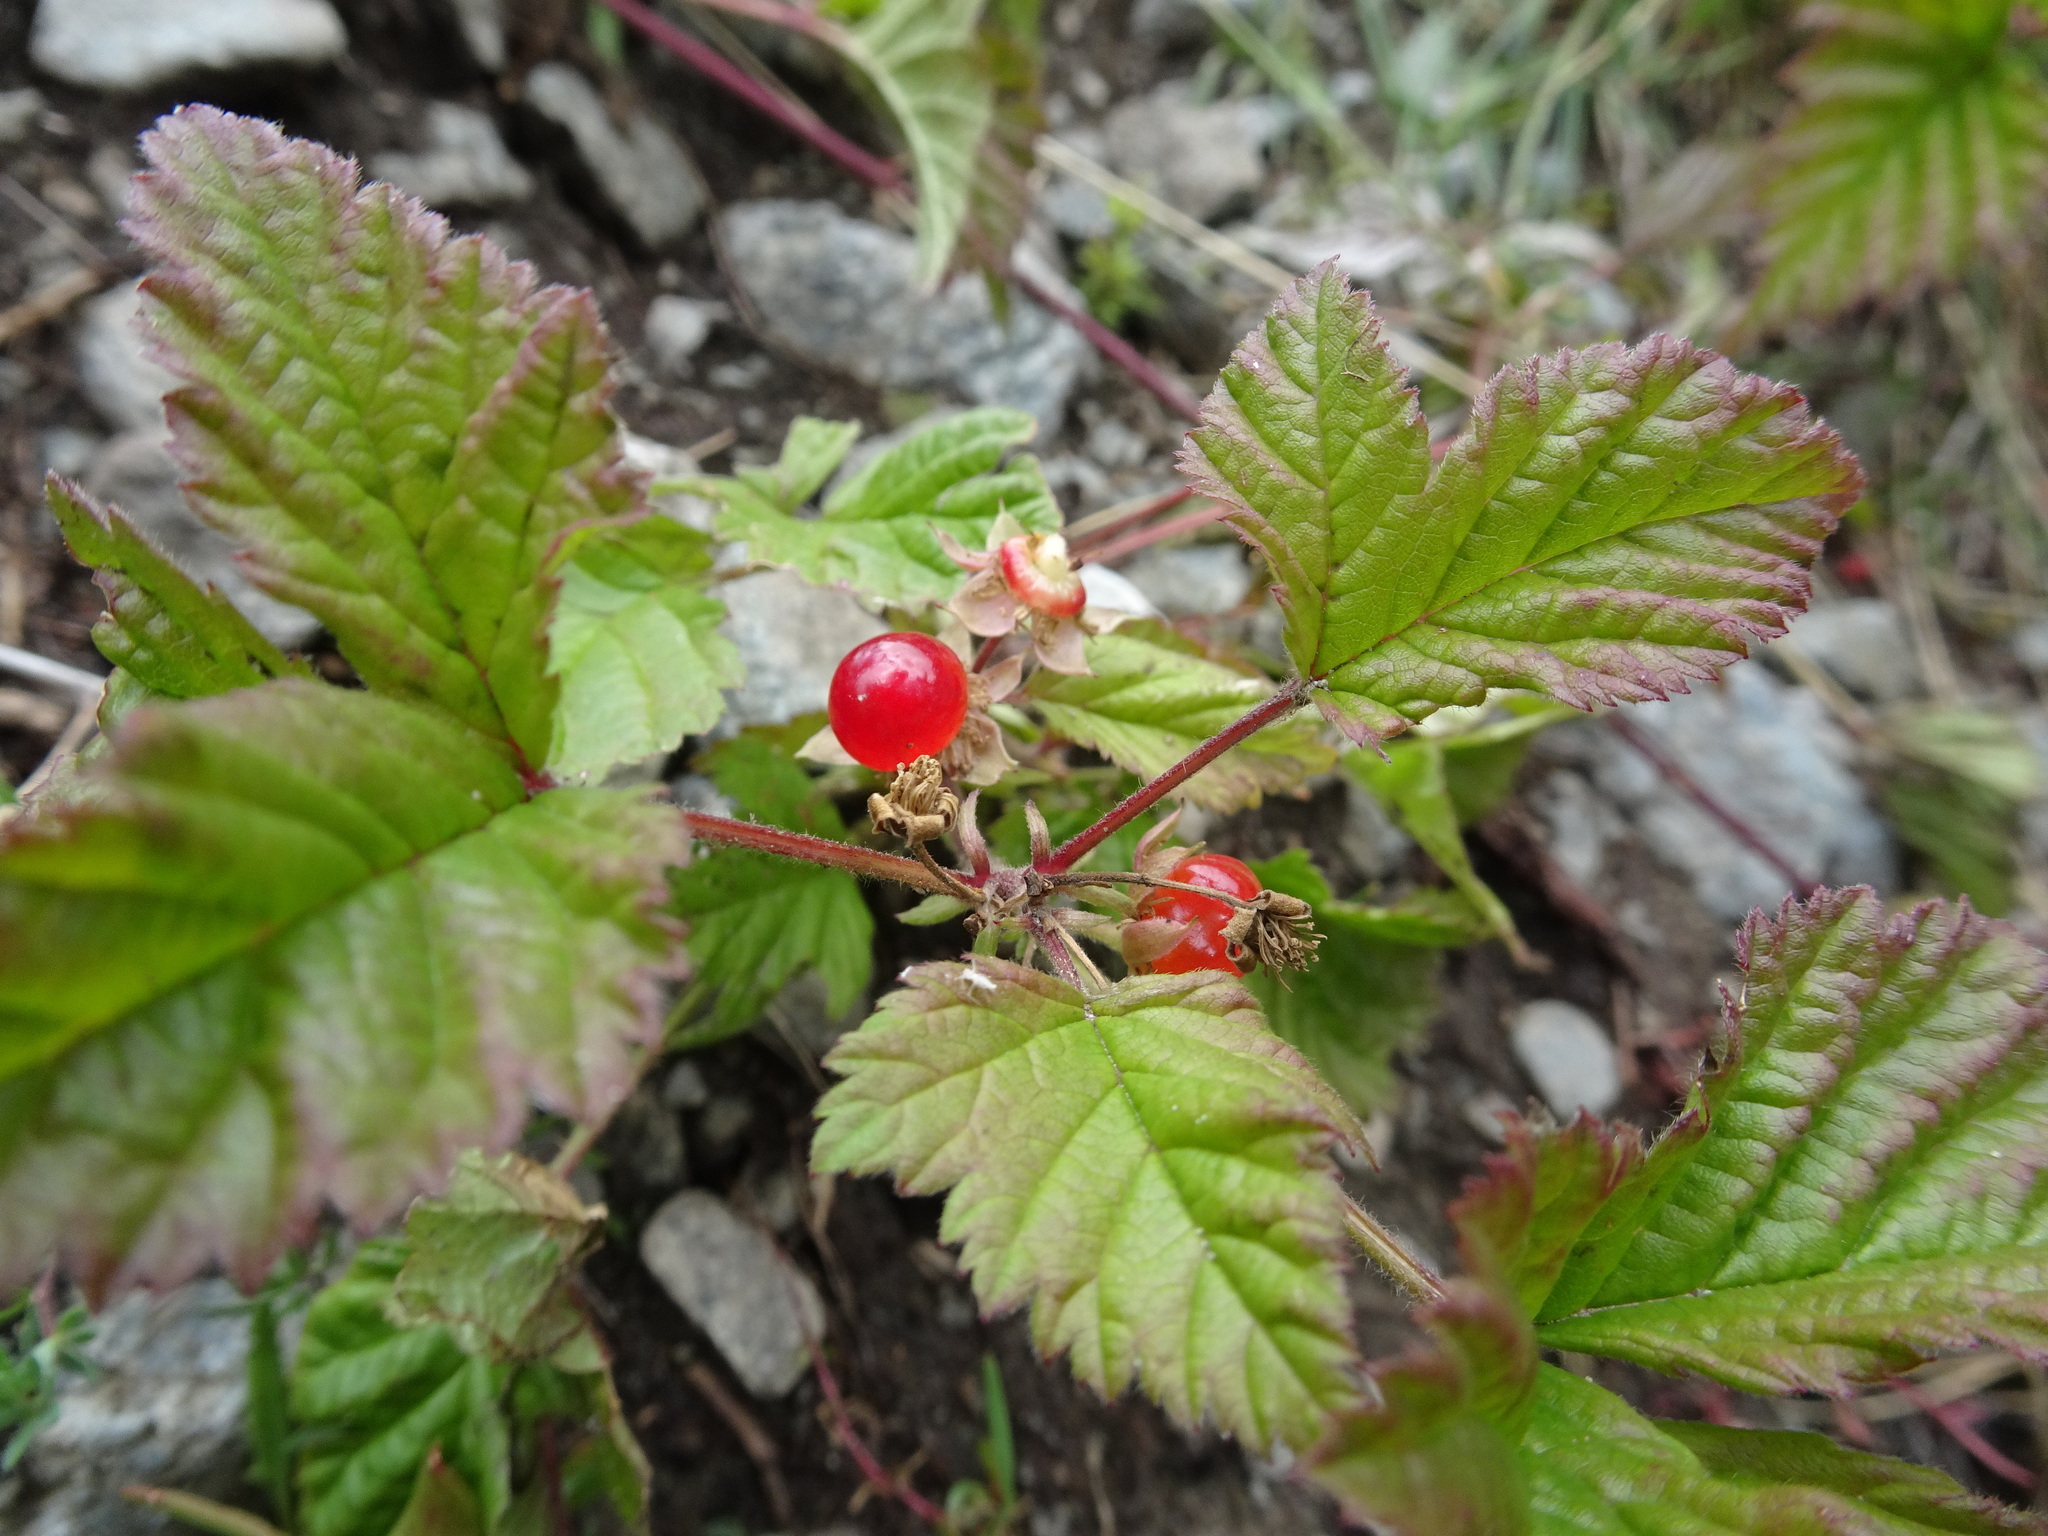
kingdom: Plantae
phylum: Tracheophyta
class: Magnoliopsida
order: Rosales
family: Rosaceae
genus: Rubus
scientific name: Rubus saxatilis
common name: Stone bramble
